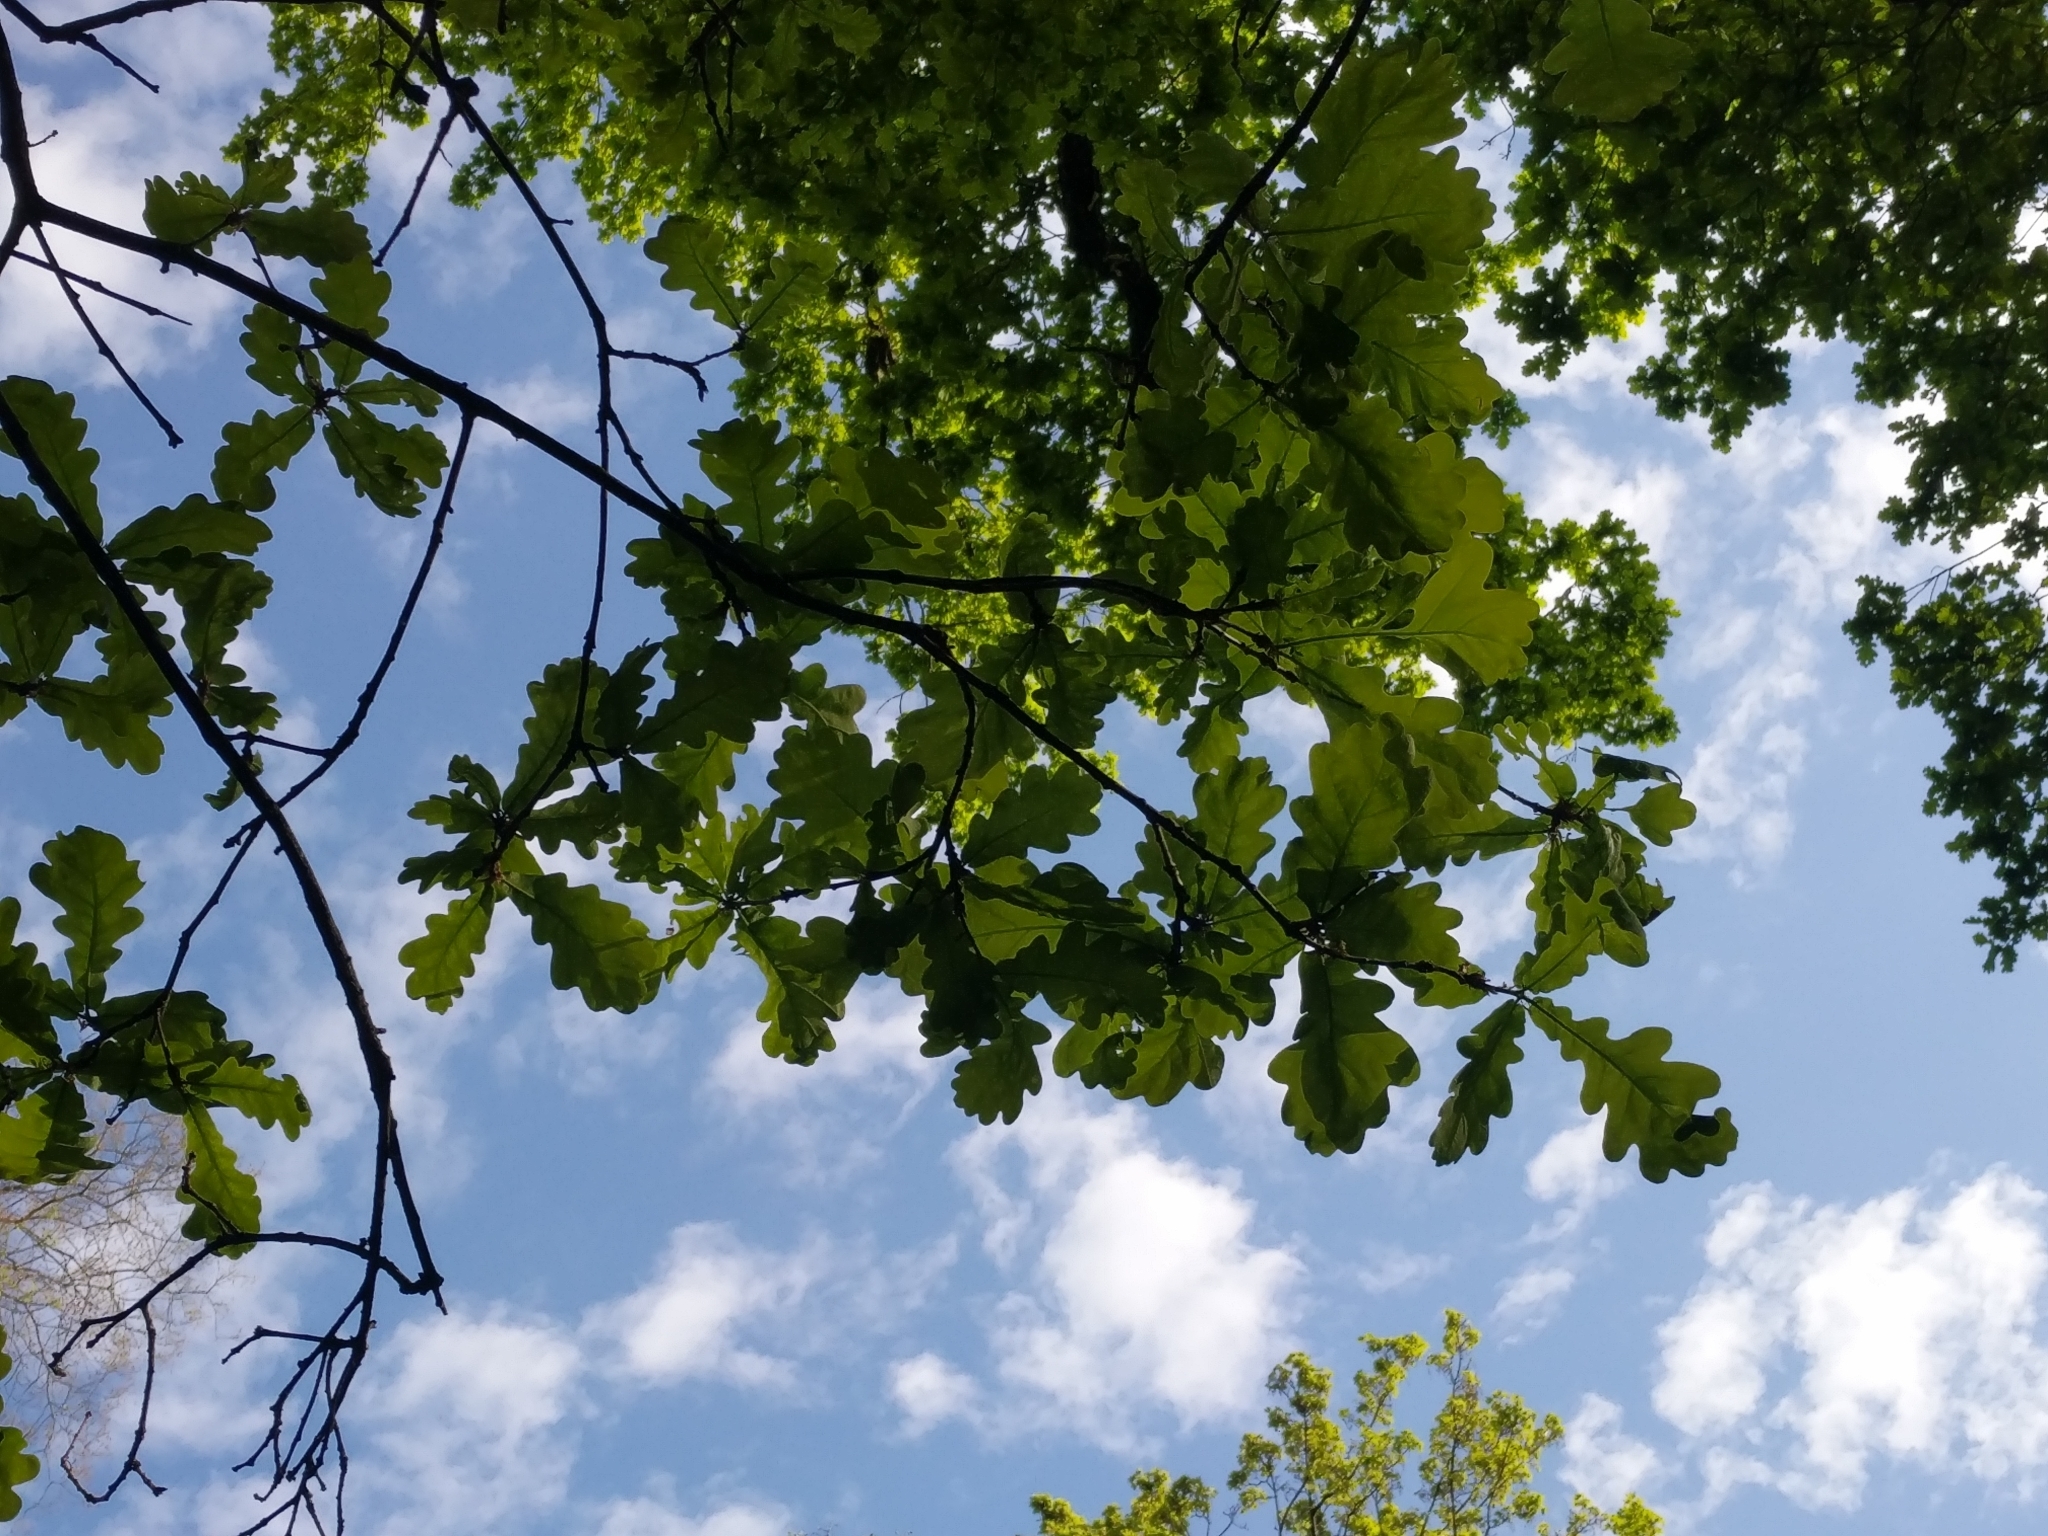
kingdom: Plantae
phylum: Tracheophyta
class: Magnoliopsida
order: Fagales
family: Fagaceae
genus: Quercus
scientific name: Quercus robur
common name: Pedunculate oak
